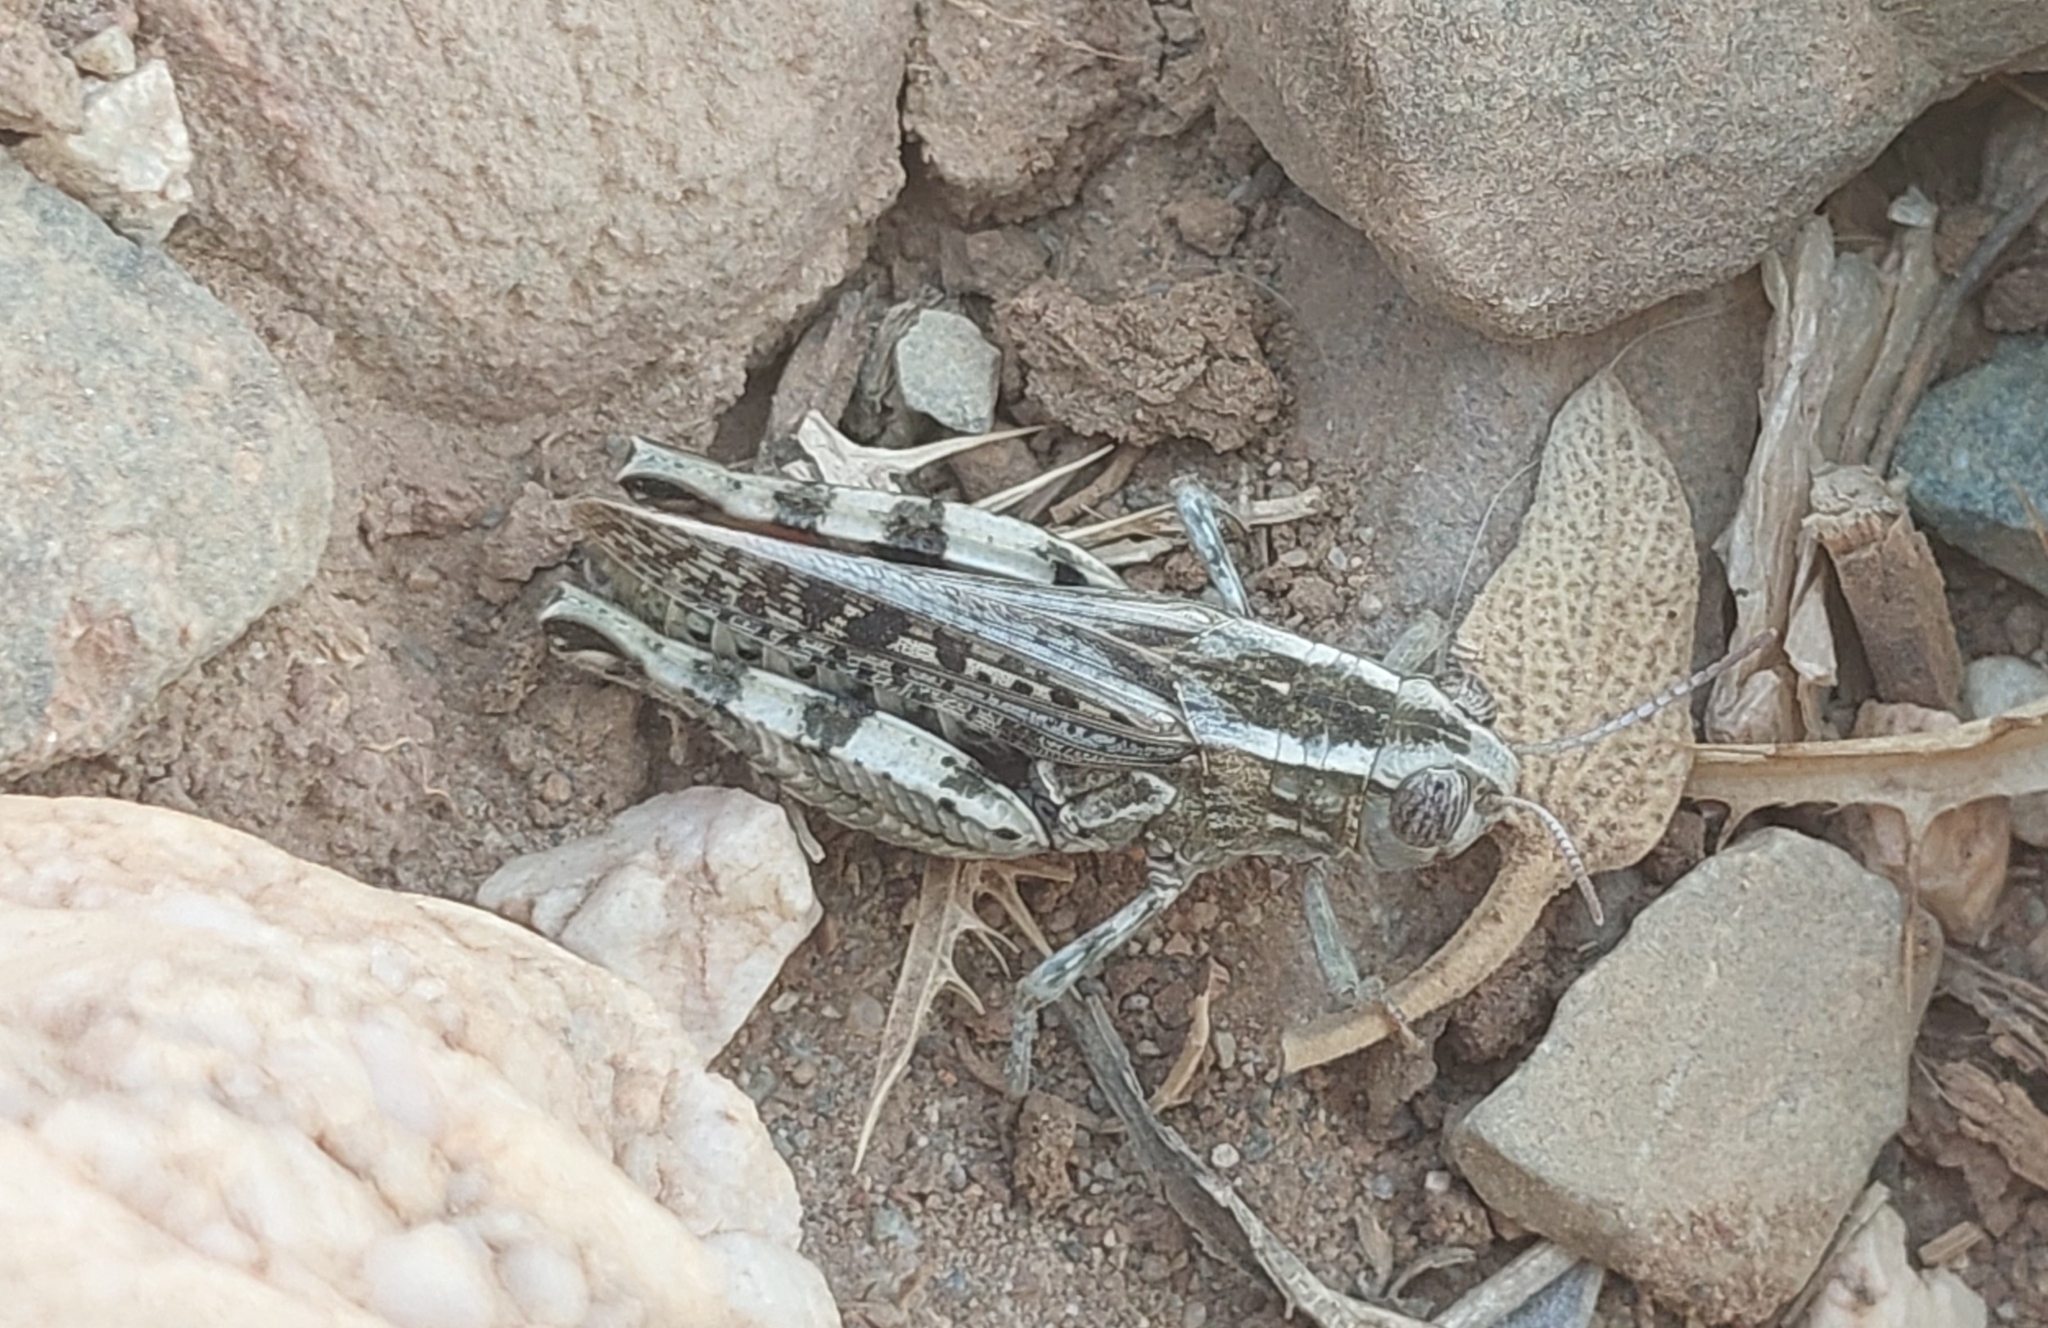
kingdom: Animalia
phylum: Arthropoda
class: Insecta
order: Orthoptera
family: Acrididae
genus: Calliptamus
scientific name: Calliptamus
